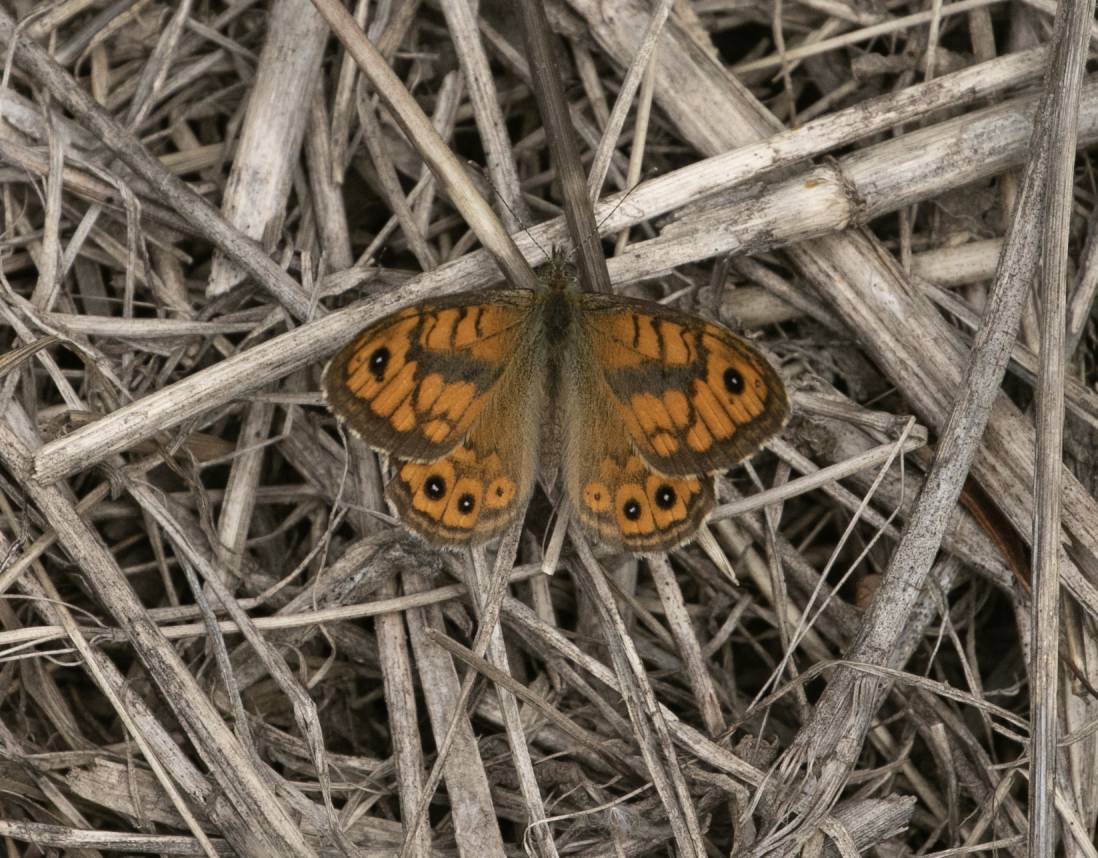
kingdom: Animalia
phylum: Arthropoda
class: Insecta
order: Lepidoptera
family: Nymphalidae
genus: Pararge
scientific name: Pararge Lasiommata megera
